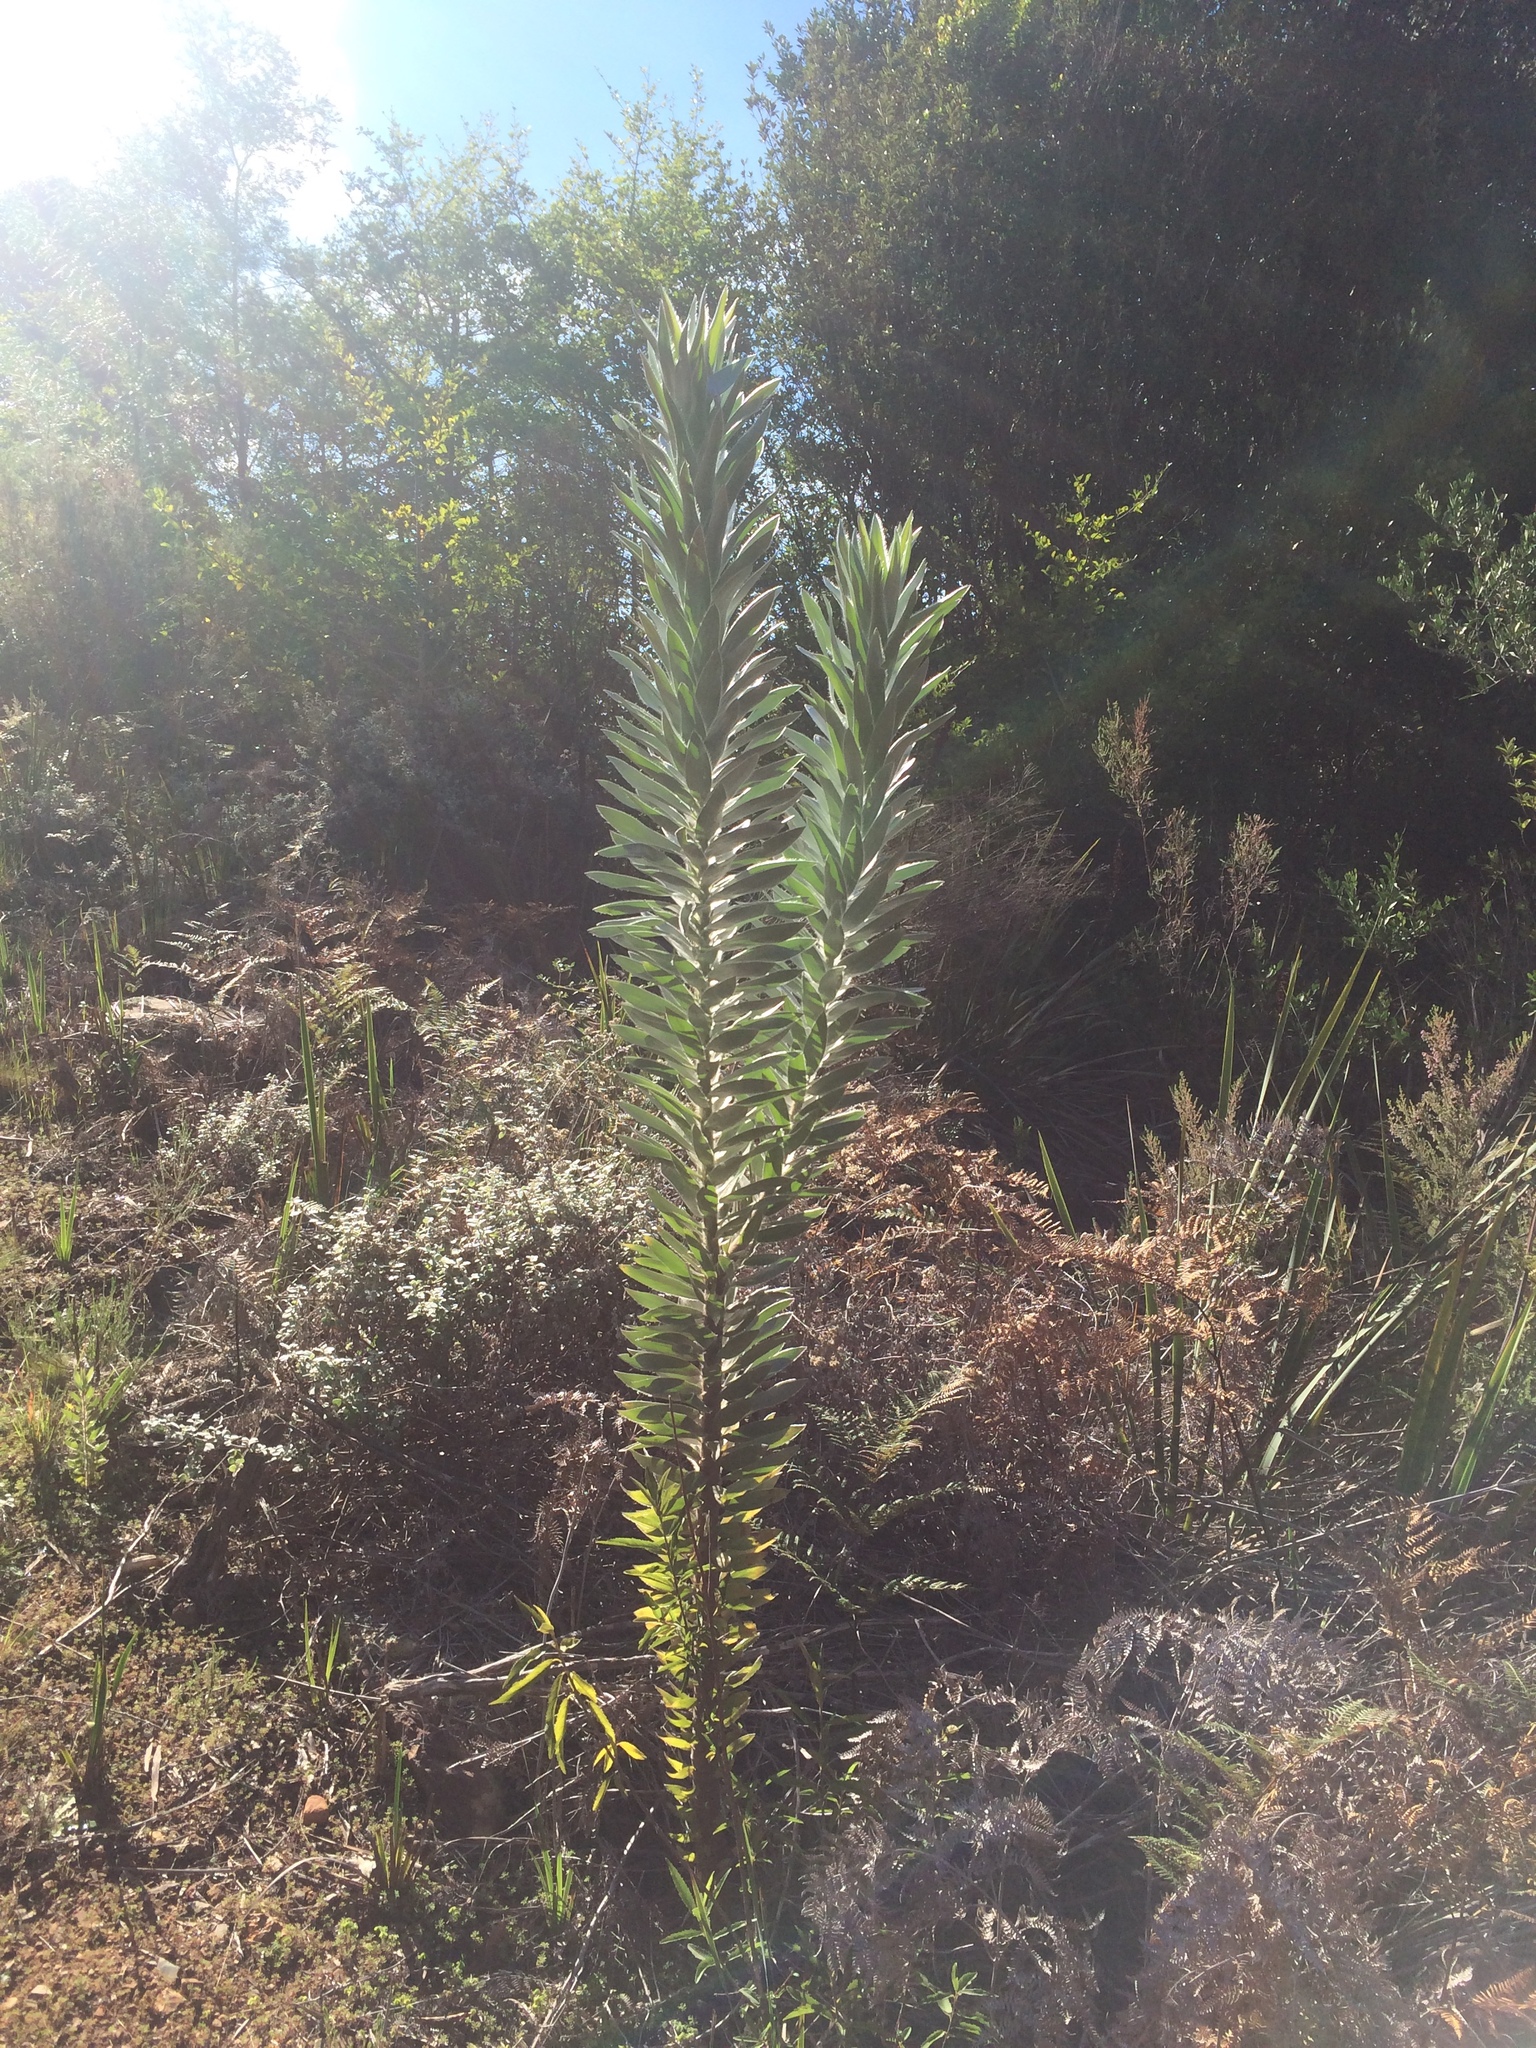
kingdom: Plantae
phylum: Tracheophyta
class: Magnoliopsida
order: Proteales
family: Proteaceae
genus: Leucadendron
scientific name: Leucadendron argenteum
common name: Cape silver tree
